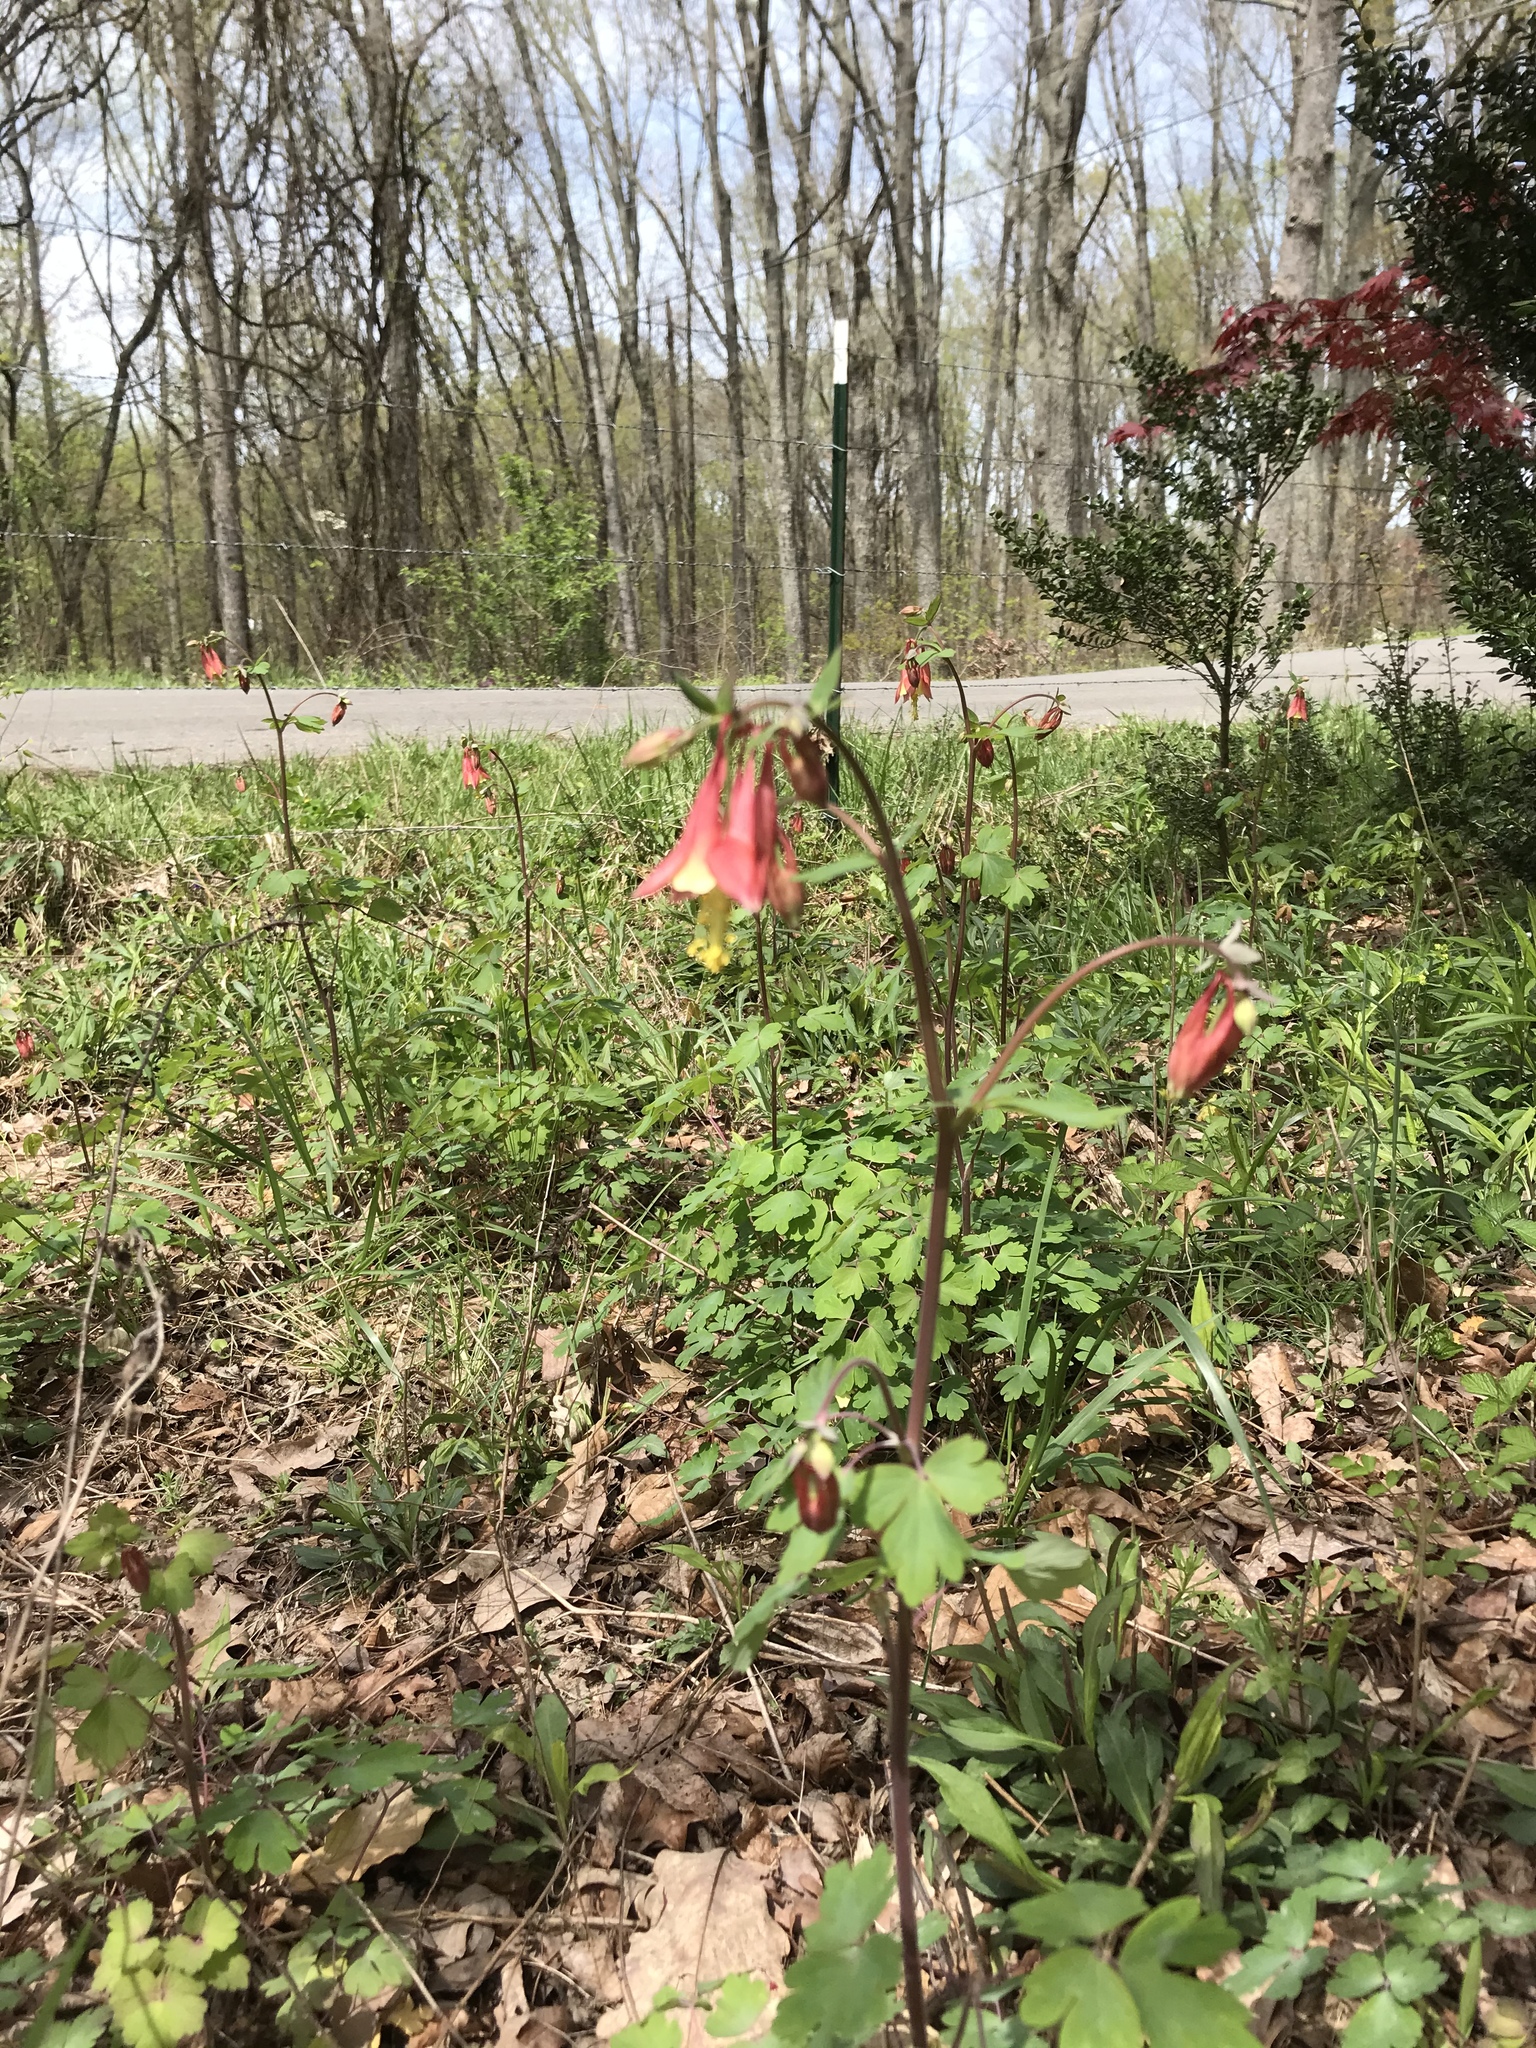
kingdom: Plantae
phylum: Tracheophyta
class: Magnoliopsida
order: Ranunculales
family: Ranunculaceae
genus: Aquilegia
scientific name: Aquilegia canadensis
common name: American columbine
